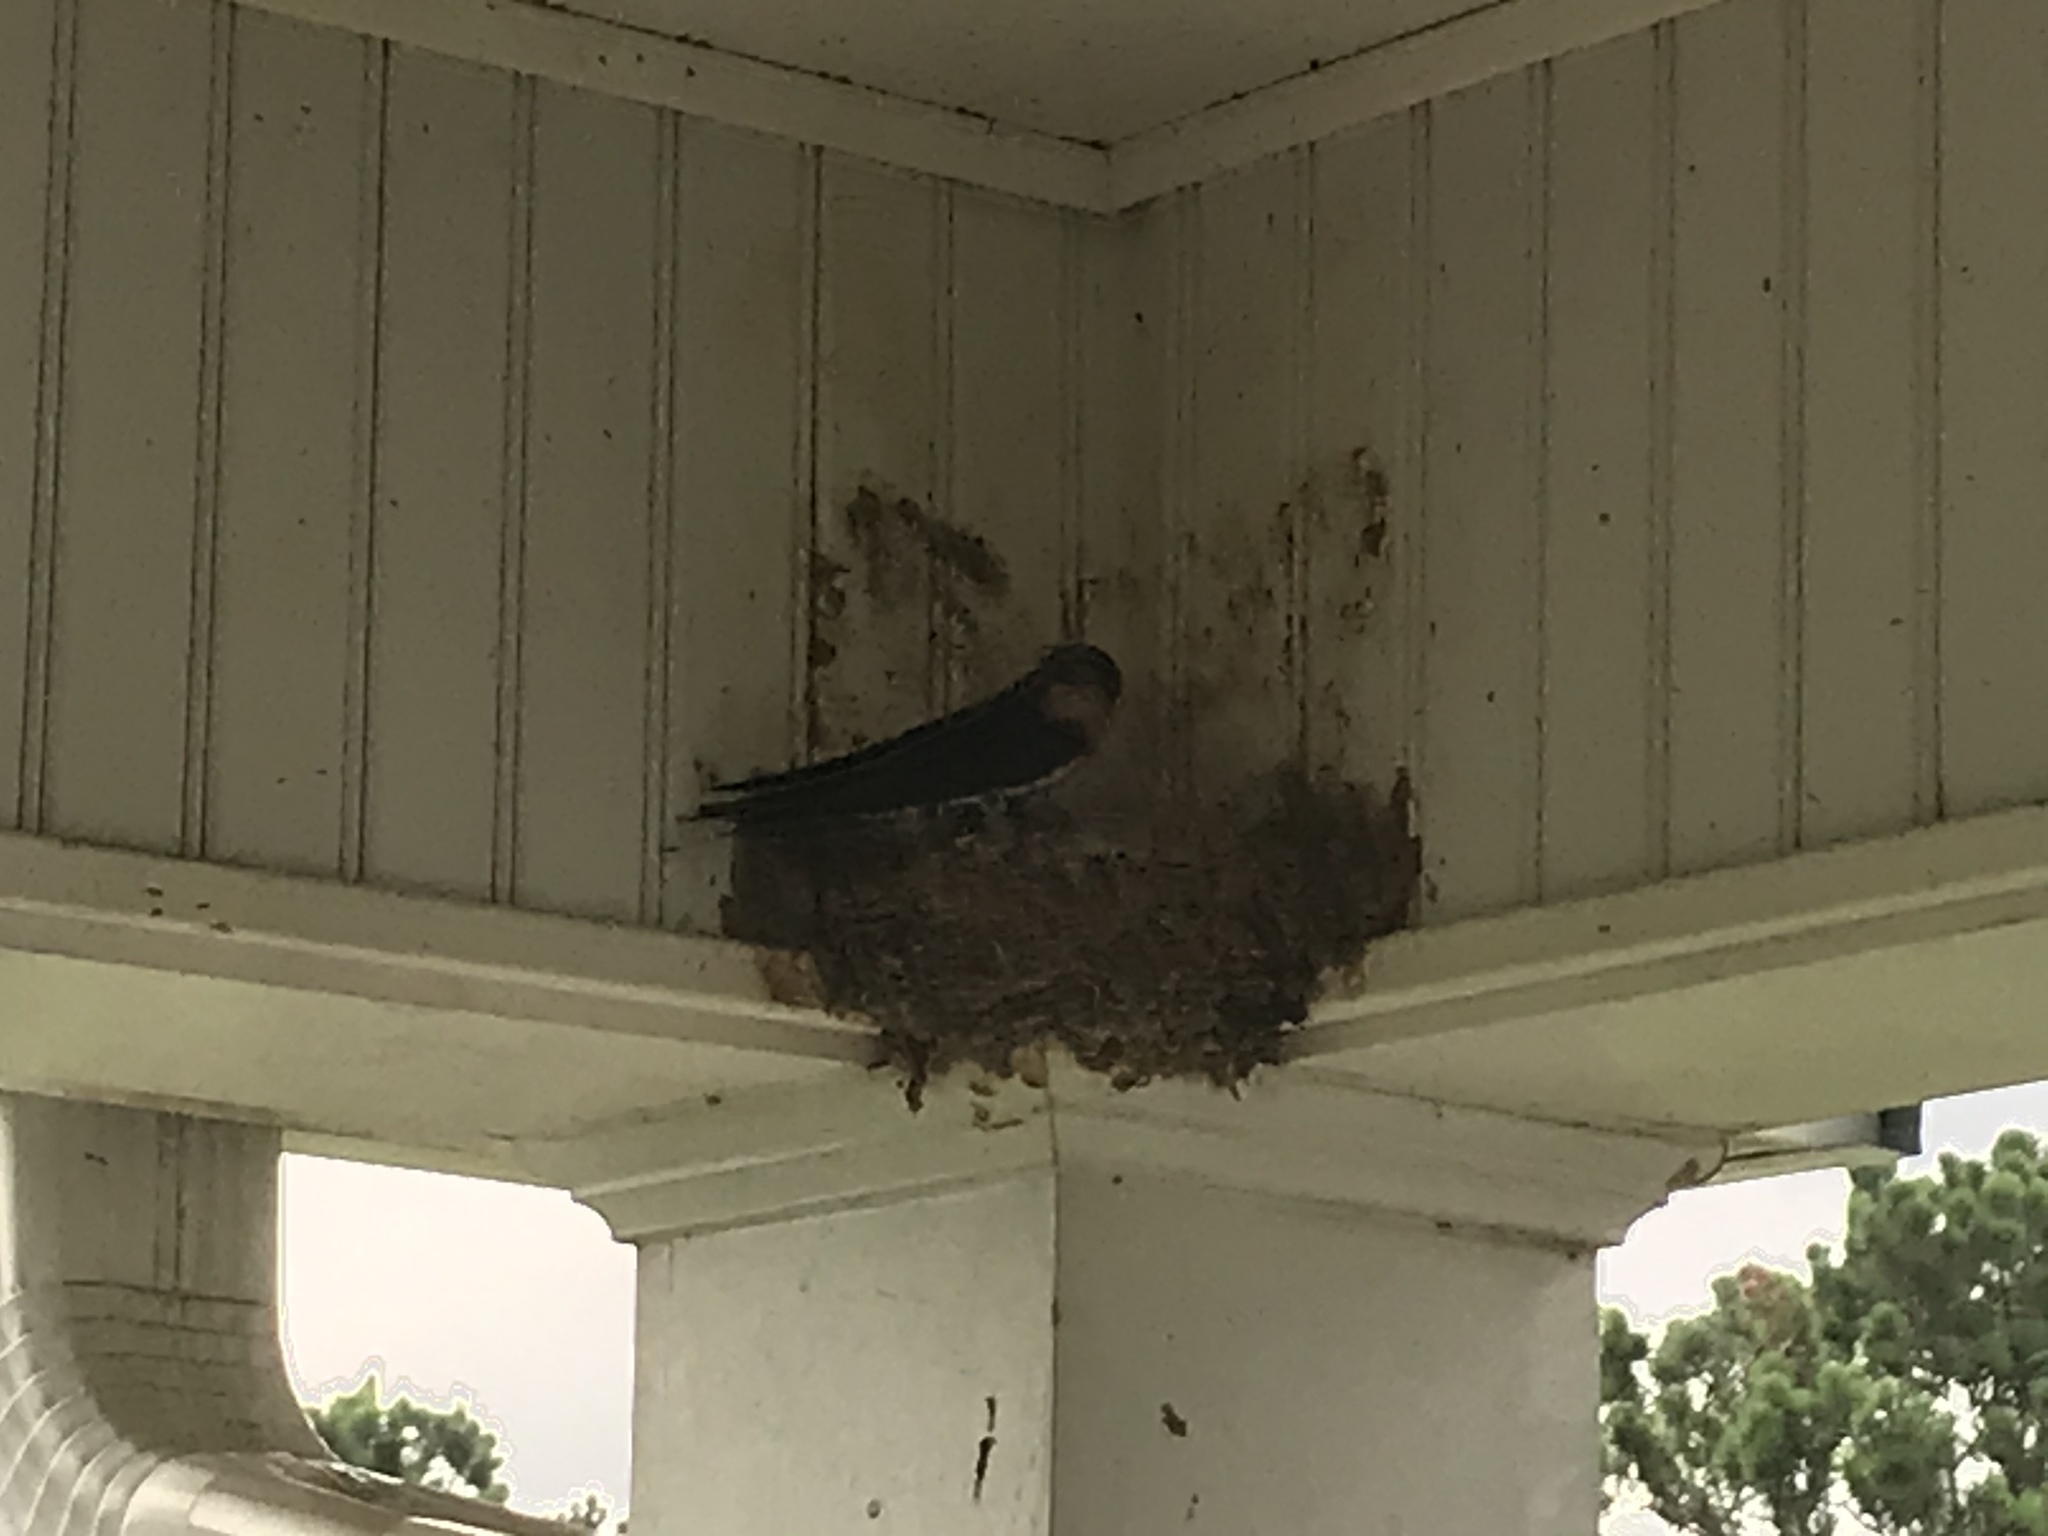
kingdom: Animalia
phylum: Chordata
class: Aves
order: Passeriformes
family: Hirundinidae
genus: Hirundo
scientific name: Hirundo rustica
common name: Barn swallow
